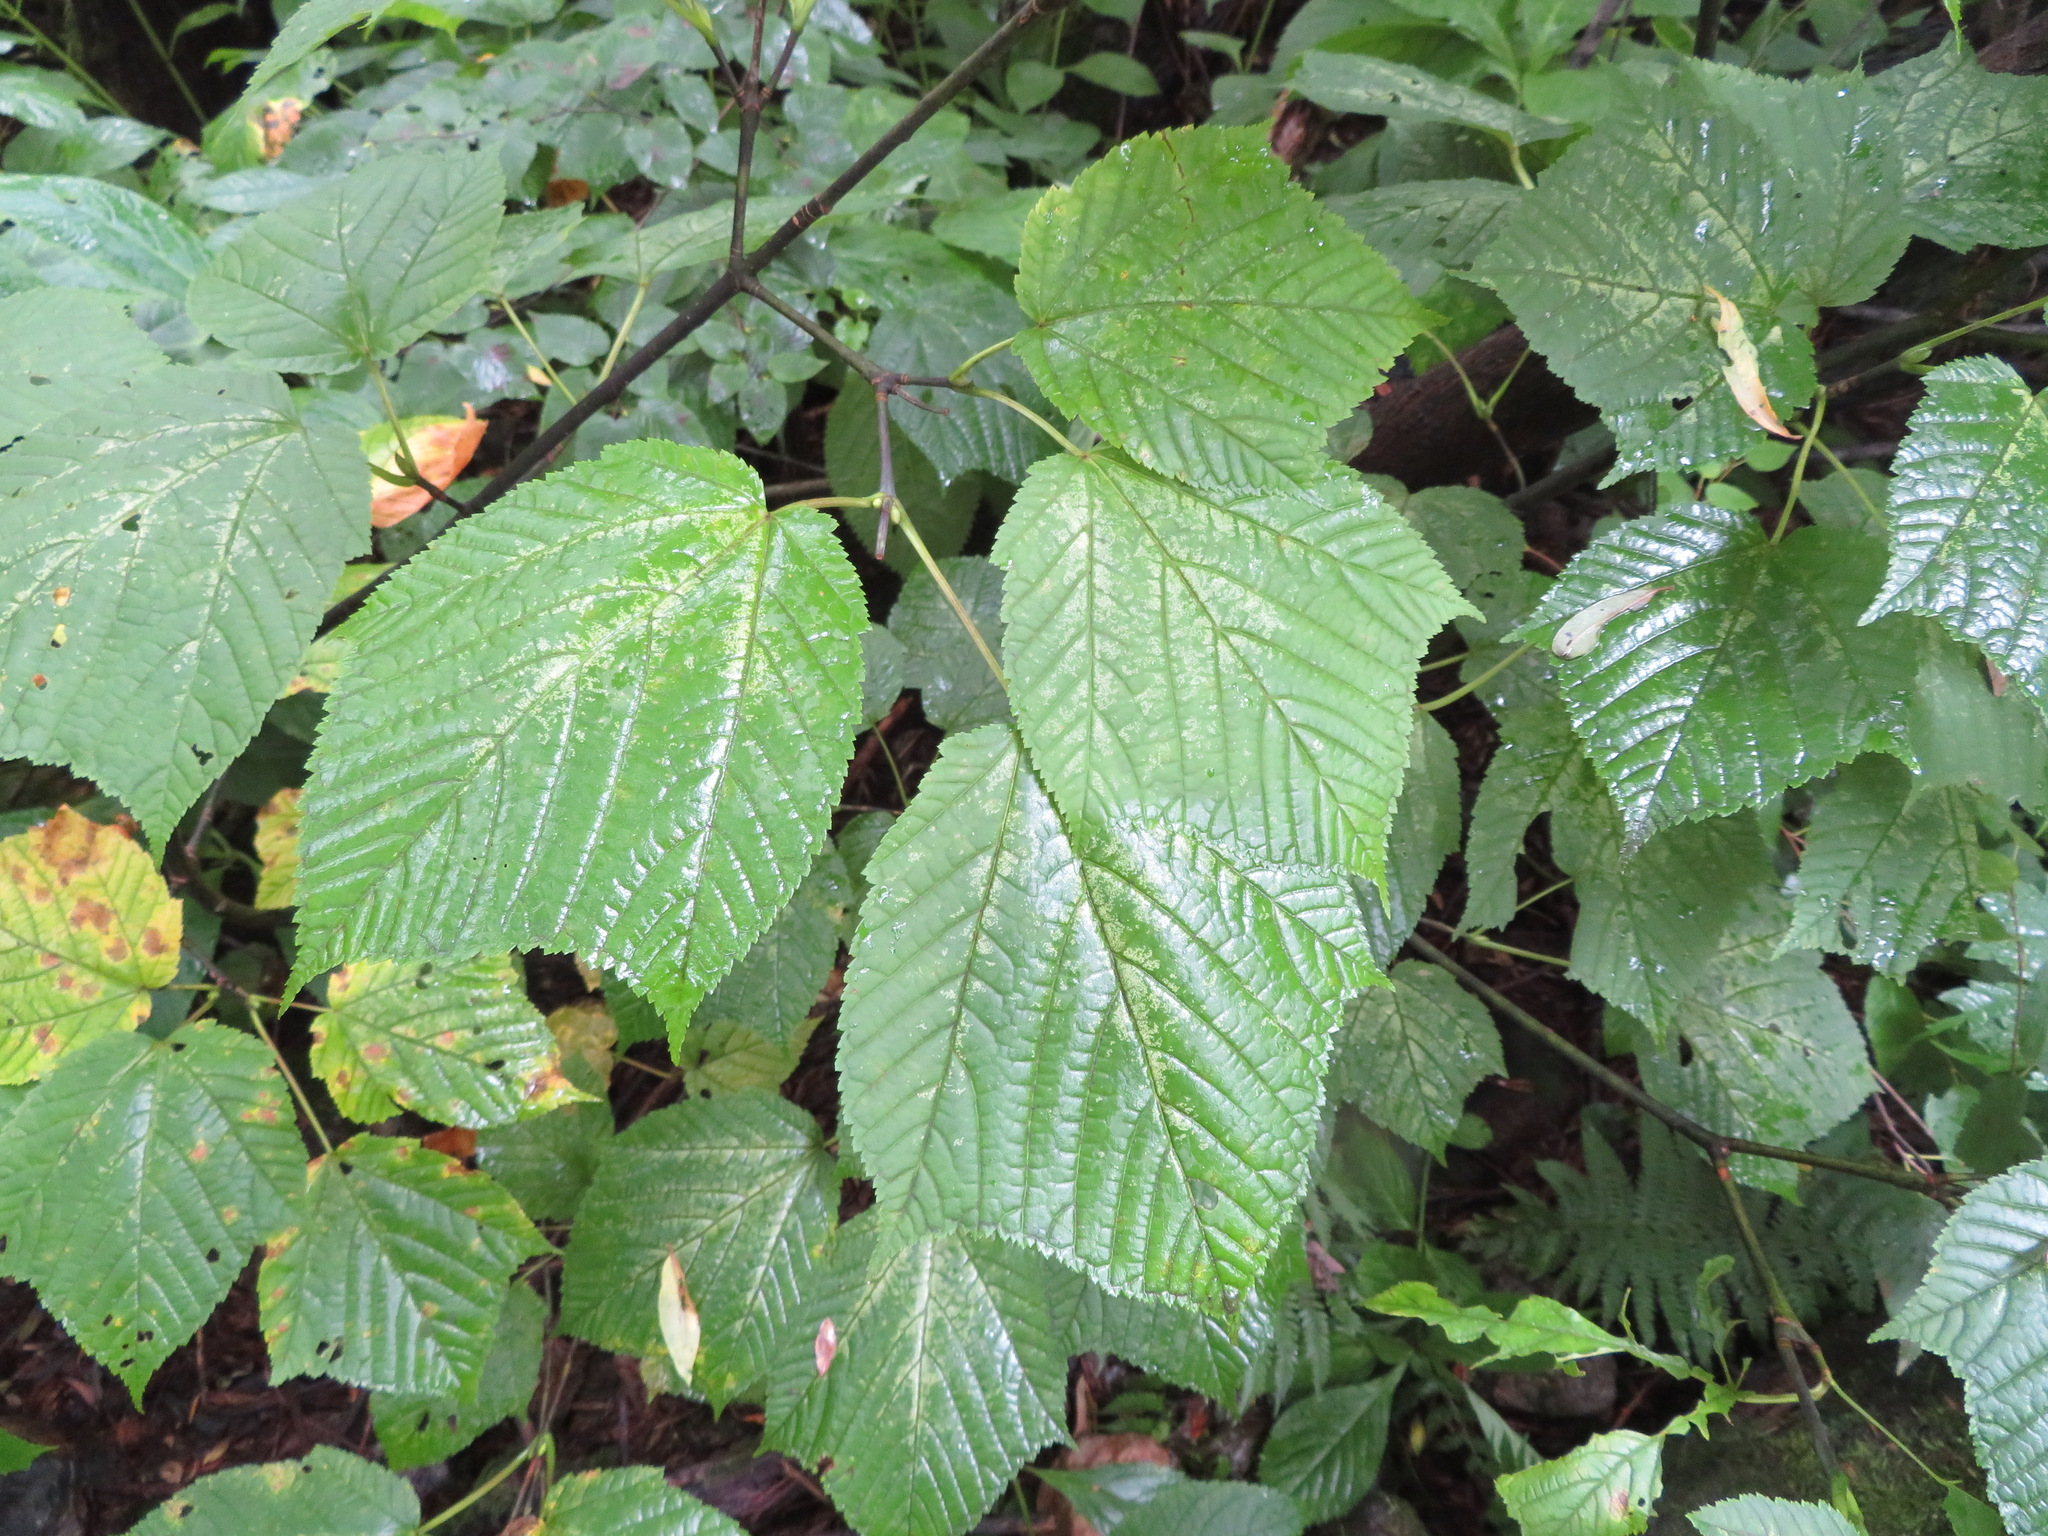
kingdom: Plantae
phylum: Tracheophyta
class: Magnoliopsida
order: Sapindales
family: Sapindaceae
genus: Acer
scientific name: Acer rufinerve
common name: Red veined maple
